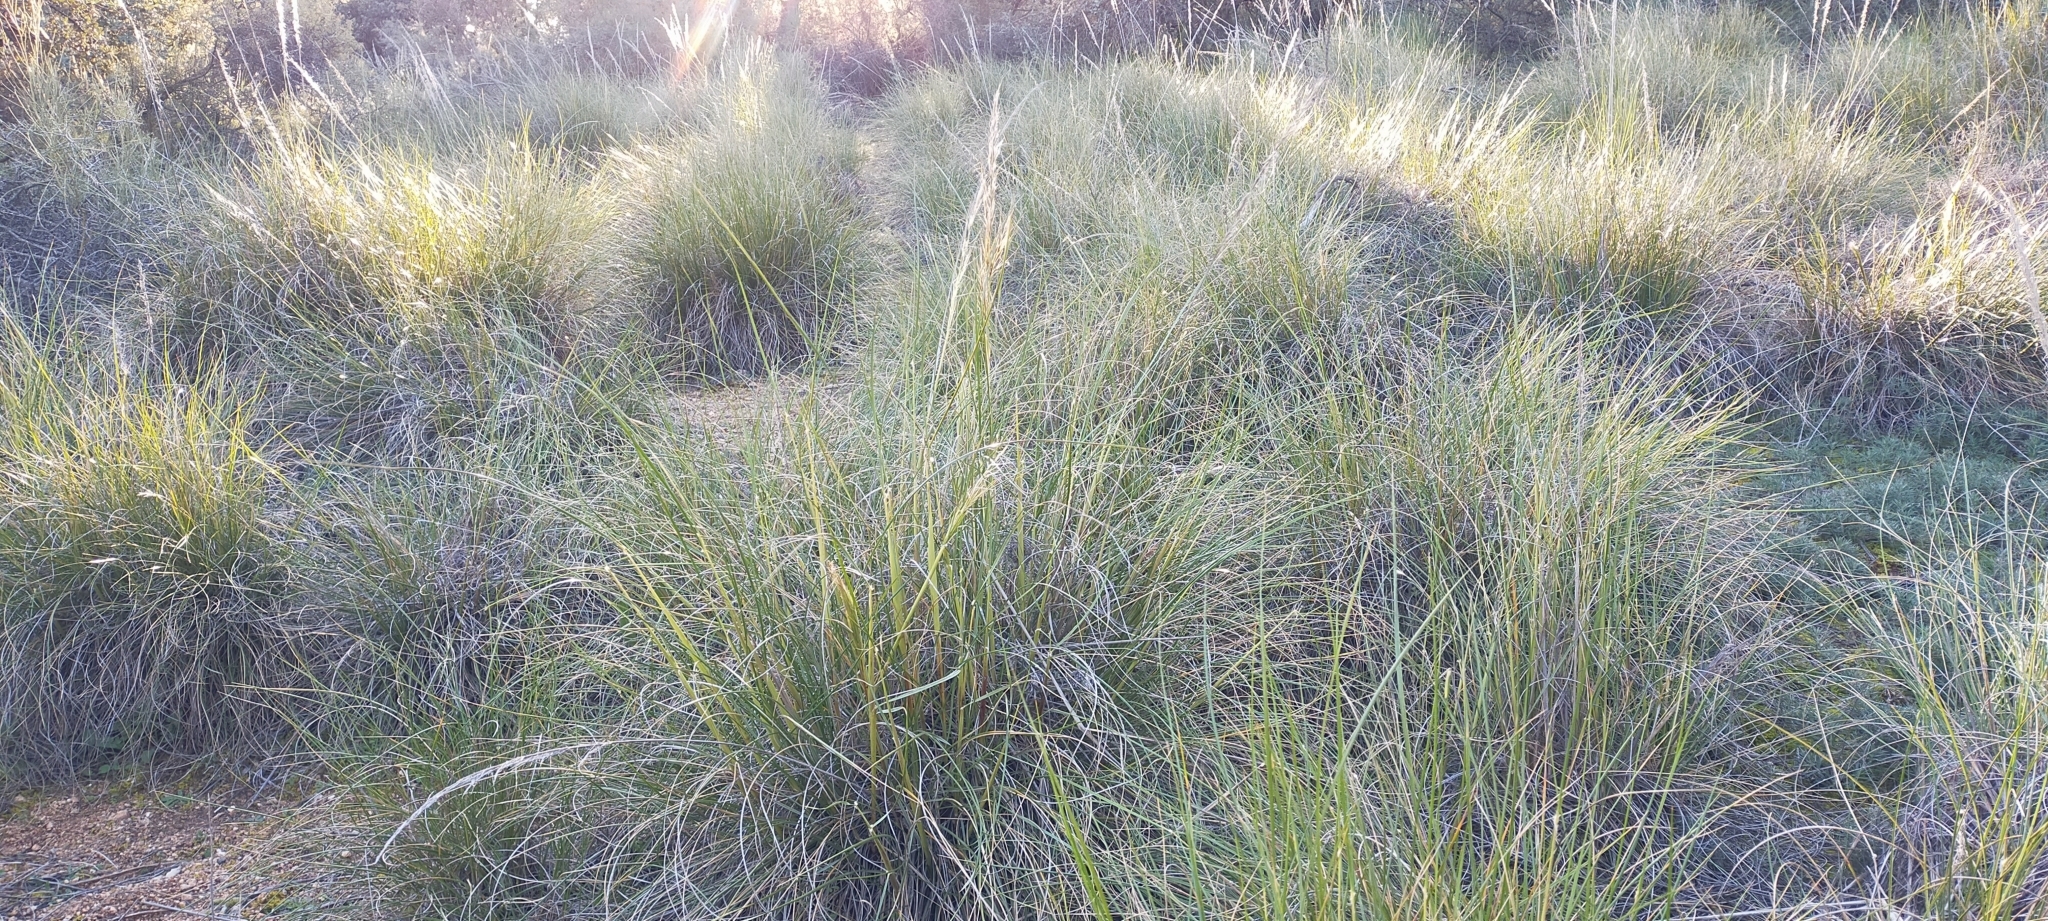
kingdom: Plantae
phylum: Tracheophyta
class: Liliopsida
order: Poales
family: Poaceae
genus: Macrochloa
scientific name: Macrochloa tenacissima
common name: Alfa grass
